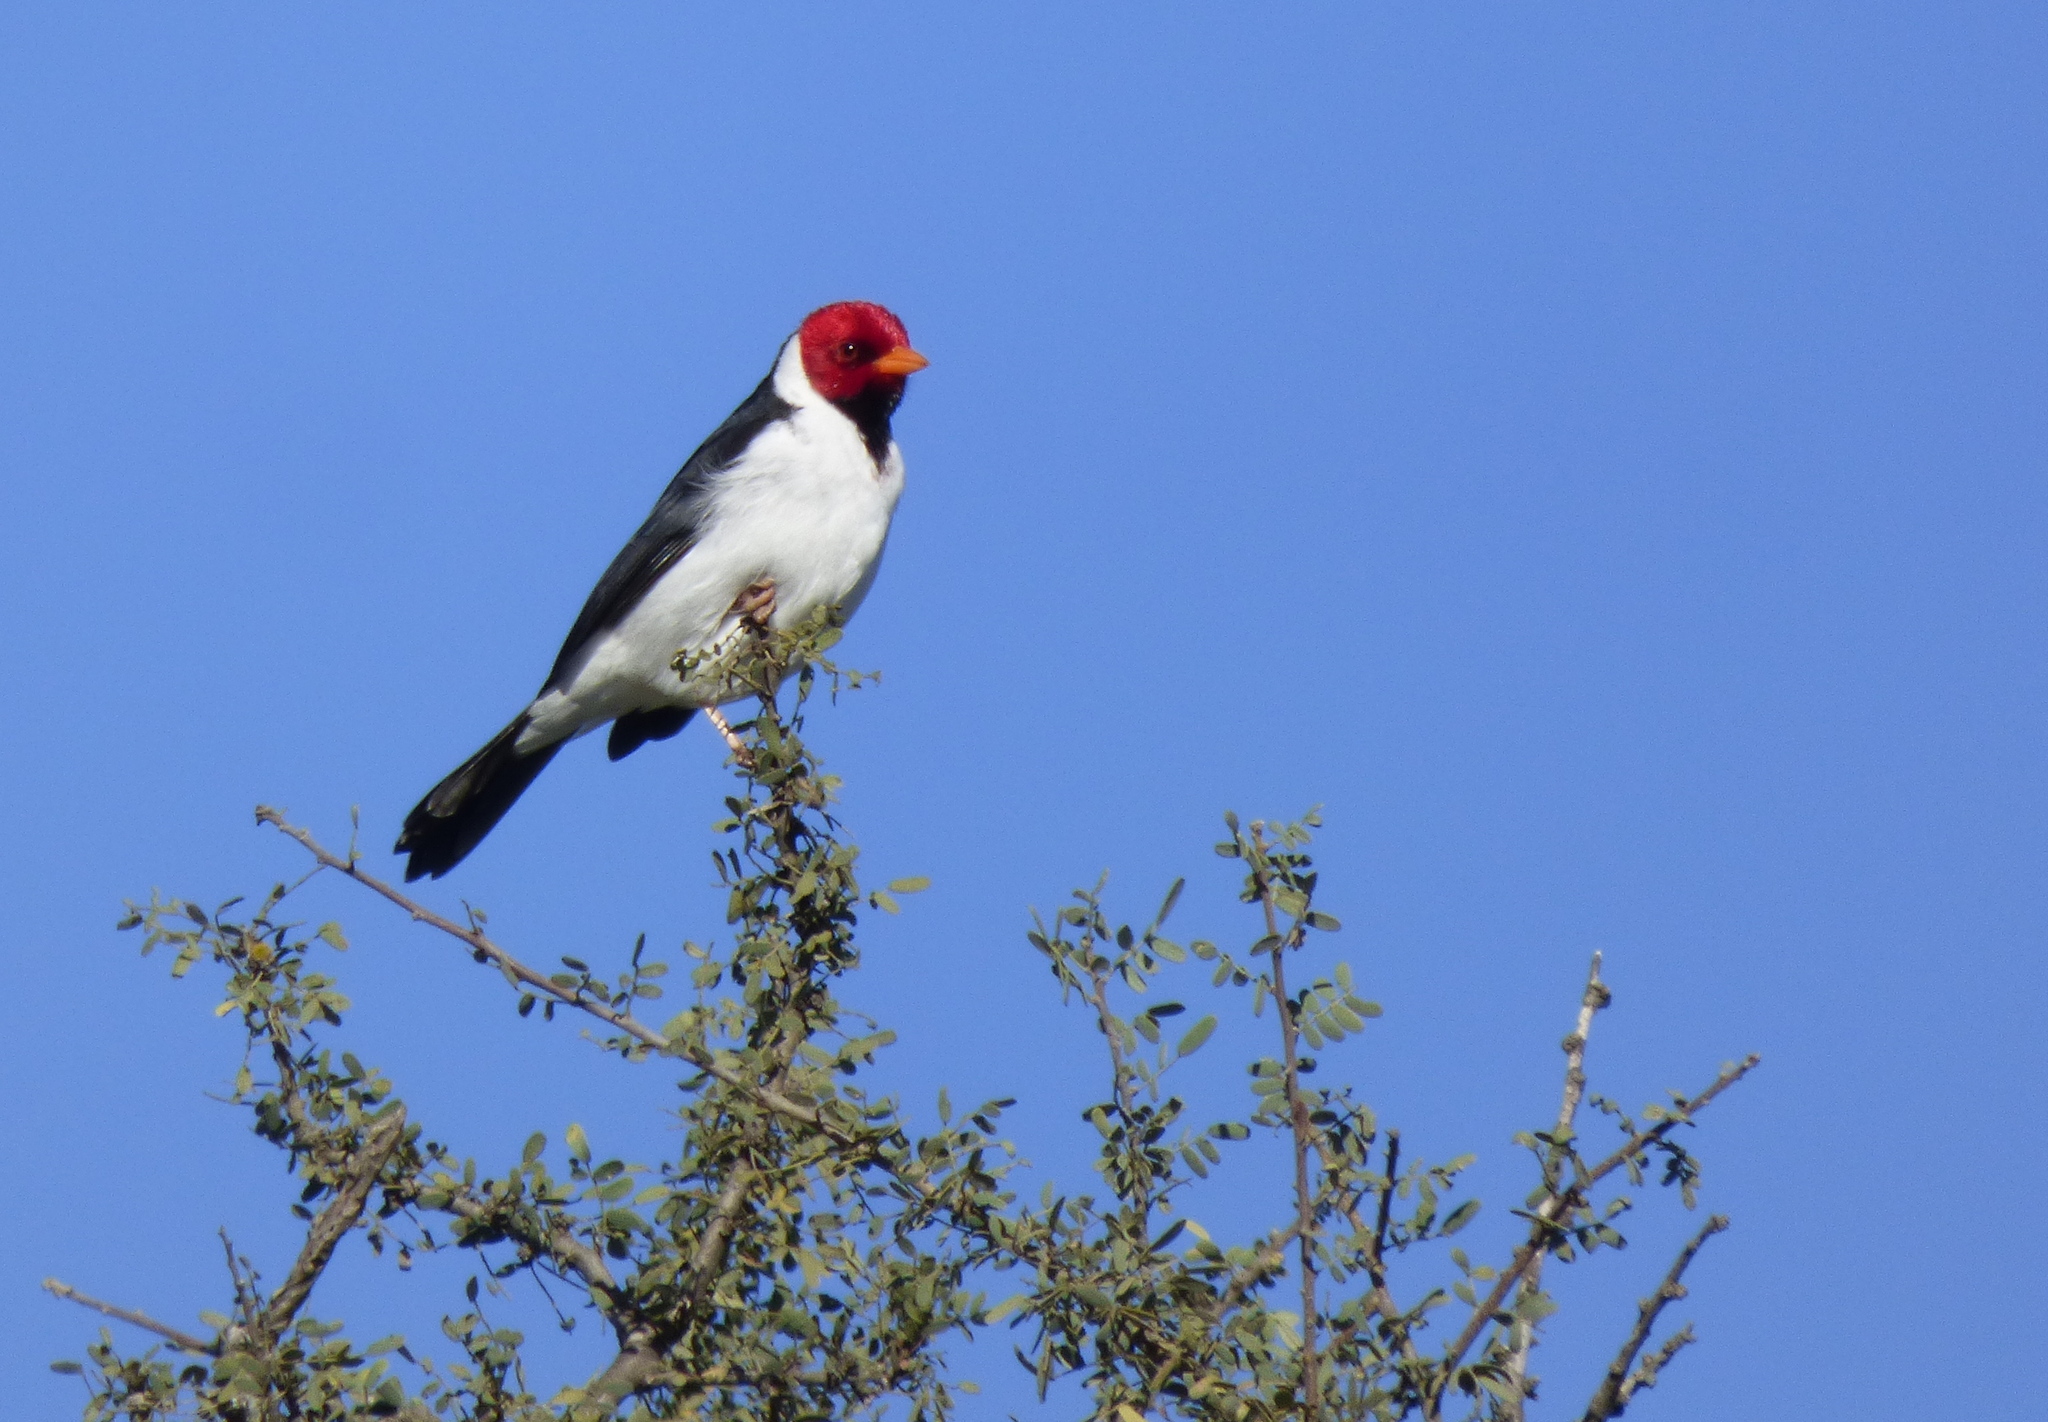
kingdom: Animalia
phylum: Chordata
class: Aves
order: Passeriformes
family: Thraupidae
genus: Paroaria
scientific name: Paroaria capitata
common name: Yellow-billed cardinal
